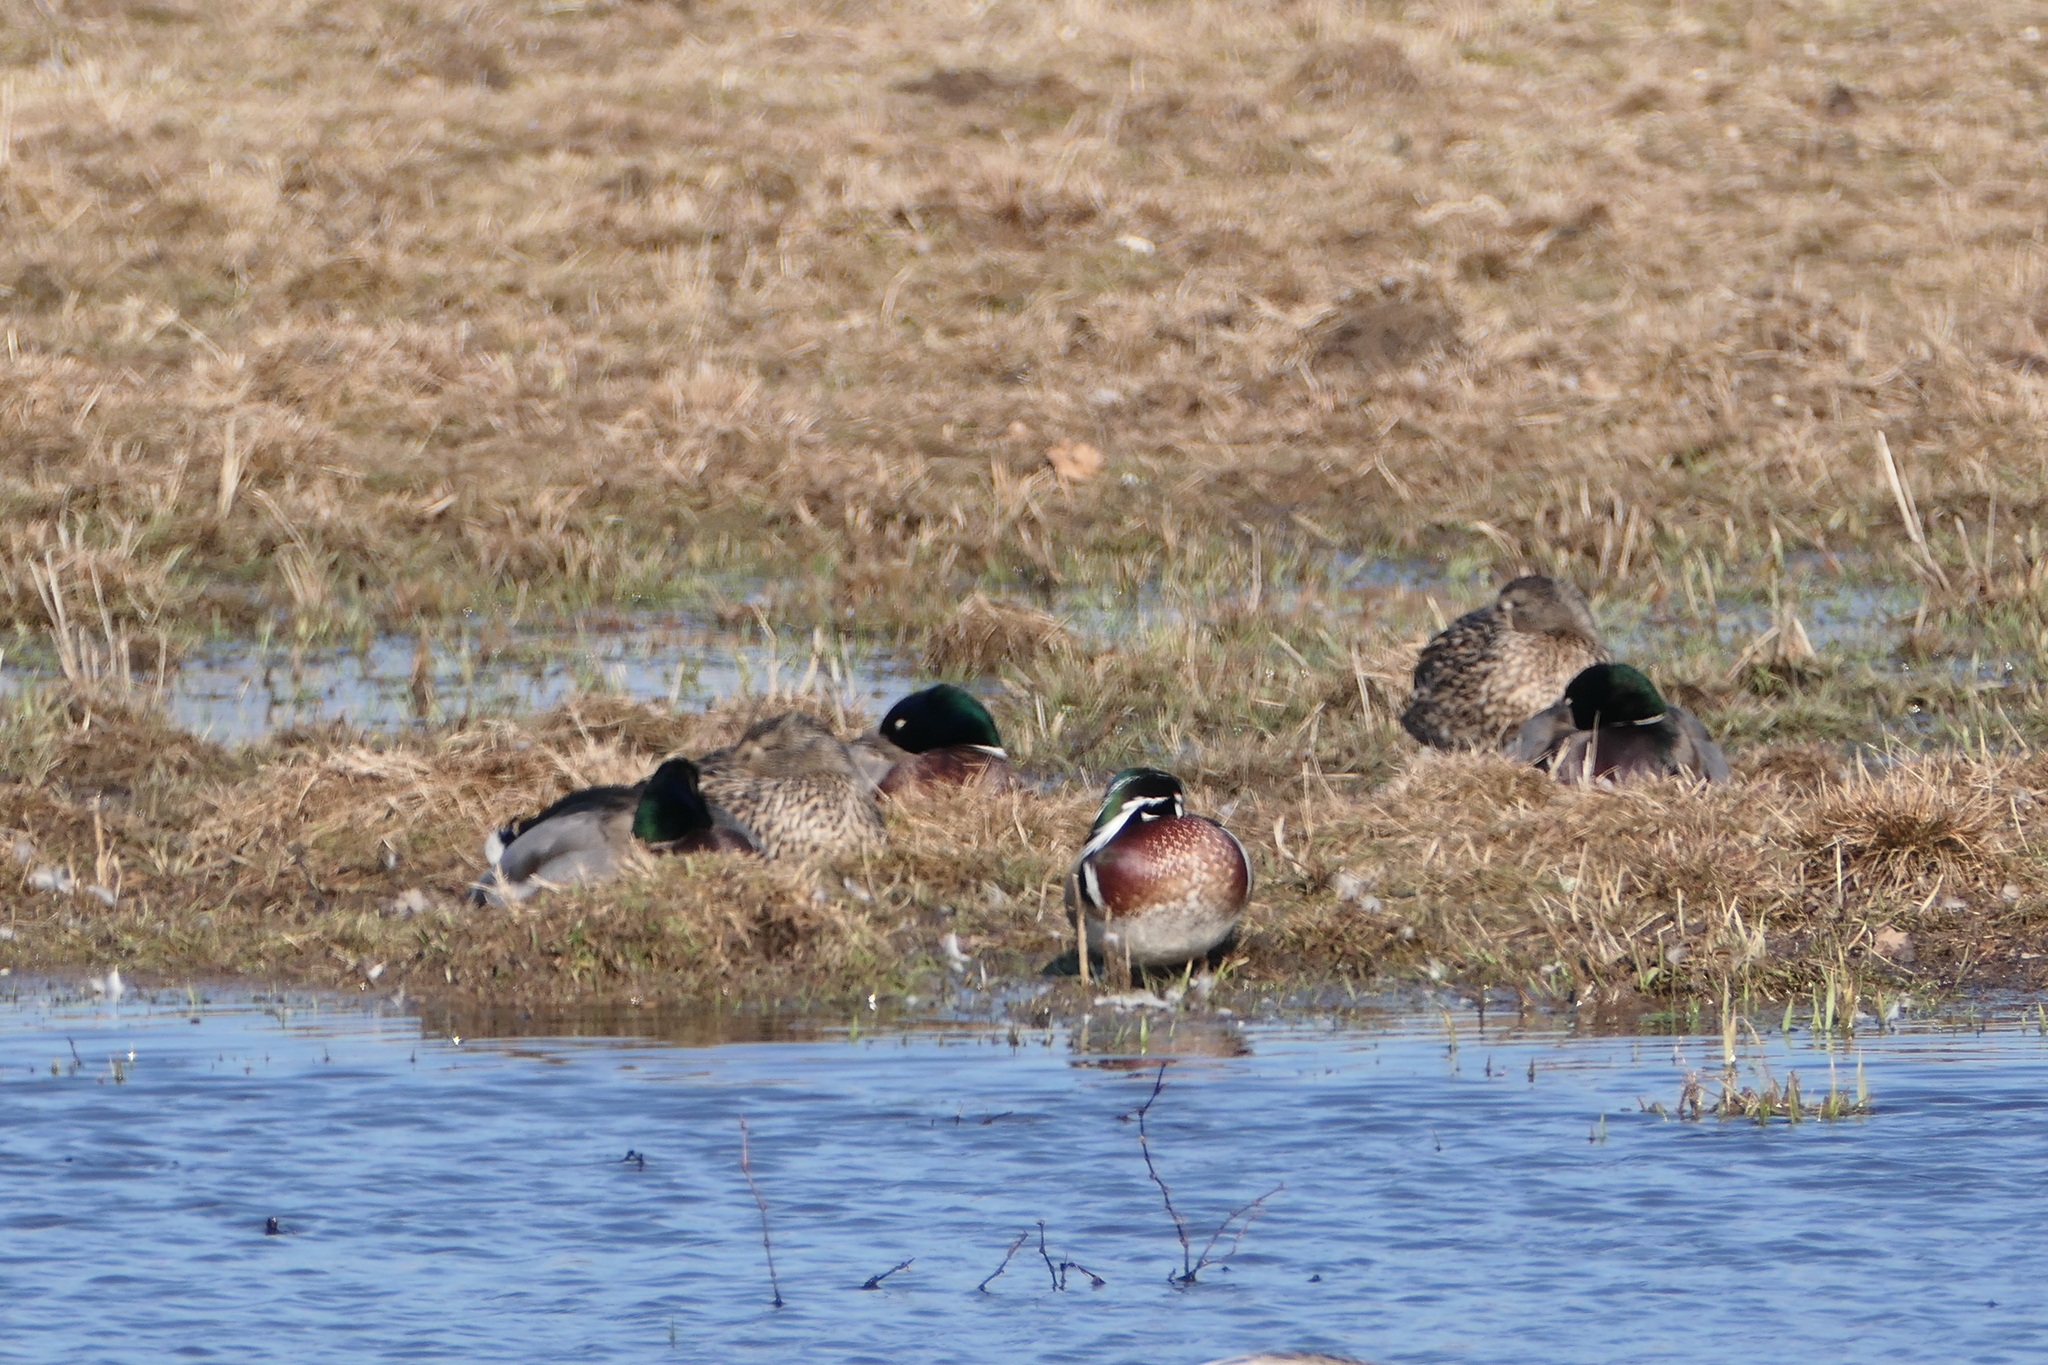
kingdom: Animalia
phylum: Chordata
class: Aves
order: Anseriformes
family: Anatidae
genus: Aix
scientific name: Aix sponsa
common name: Wood duck
